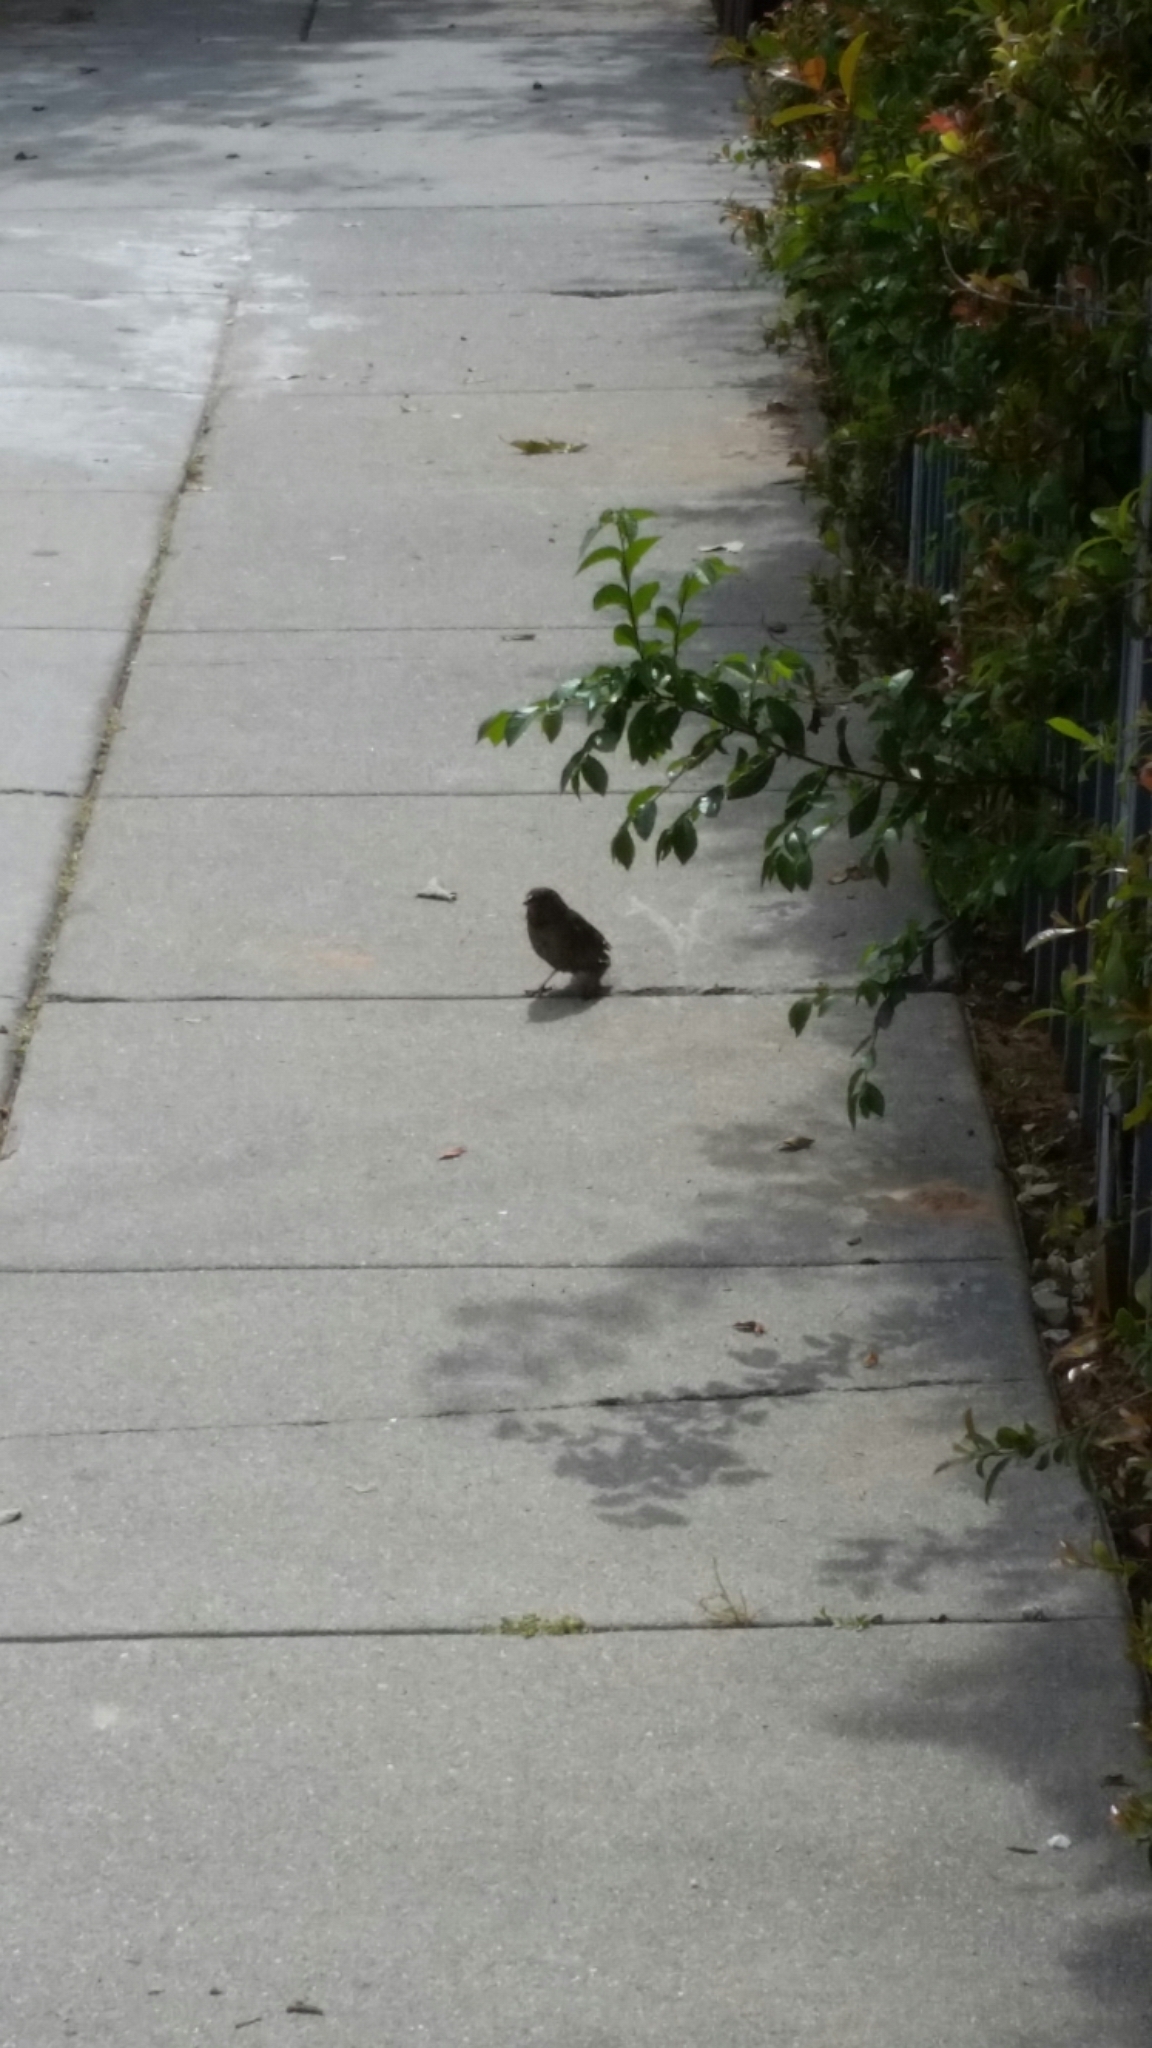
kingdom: Animalia
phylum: Chordata
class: Aves
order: Passeriformes
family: Passerellidae
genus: Junco
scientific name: Junco hyemalis
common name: Dark-eyed junco
